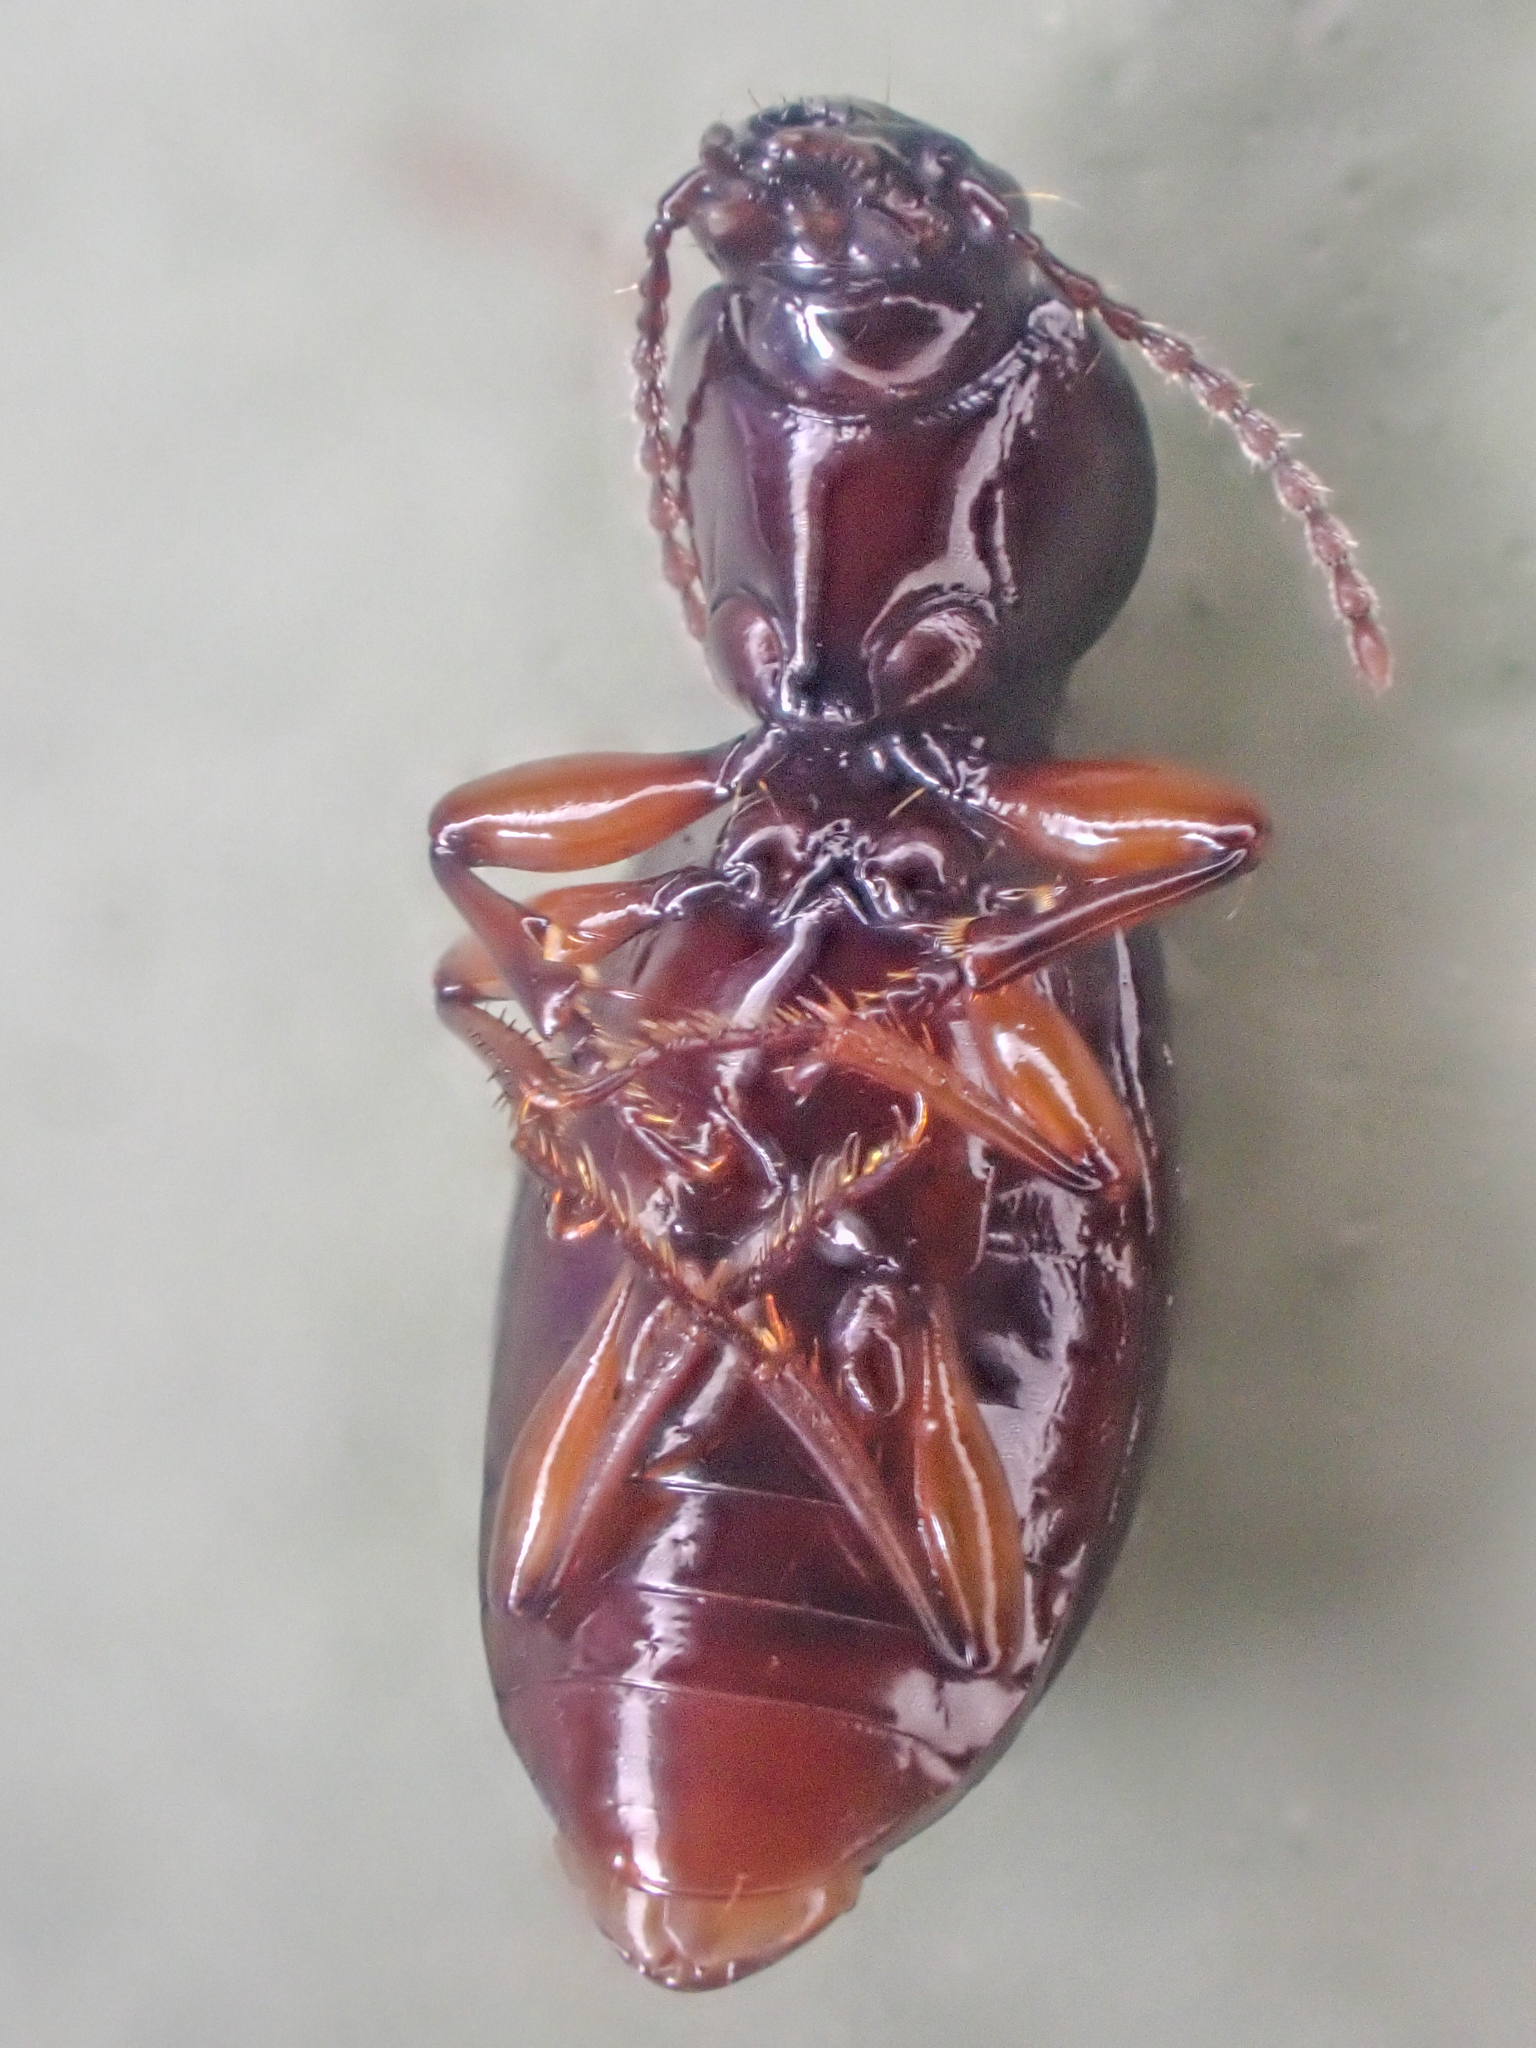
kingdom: Animalia
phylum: Arthropoda
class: Insecta
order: Coleoptera
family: Carabidae
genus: Miscodera
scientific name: Miscodera arctica
